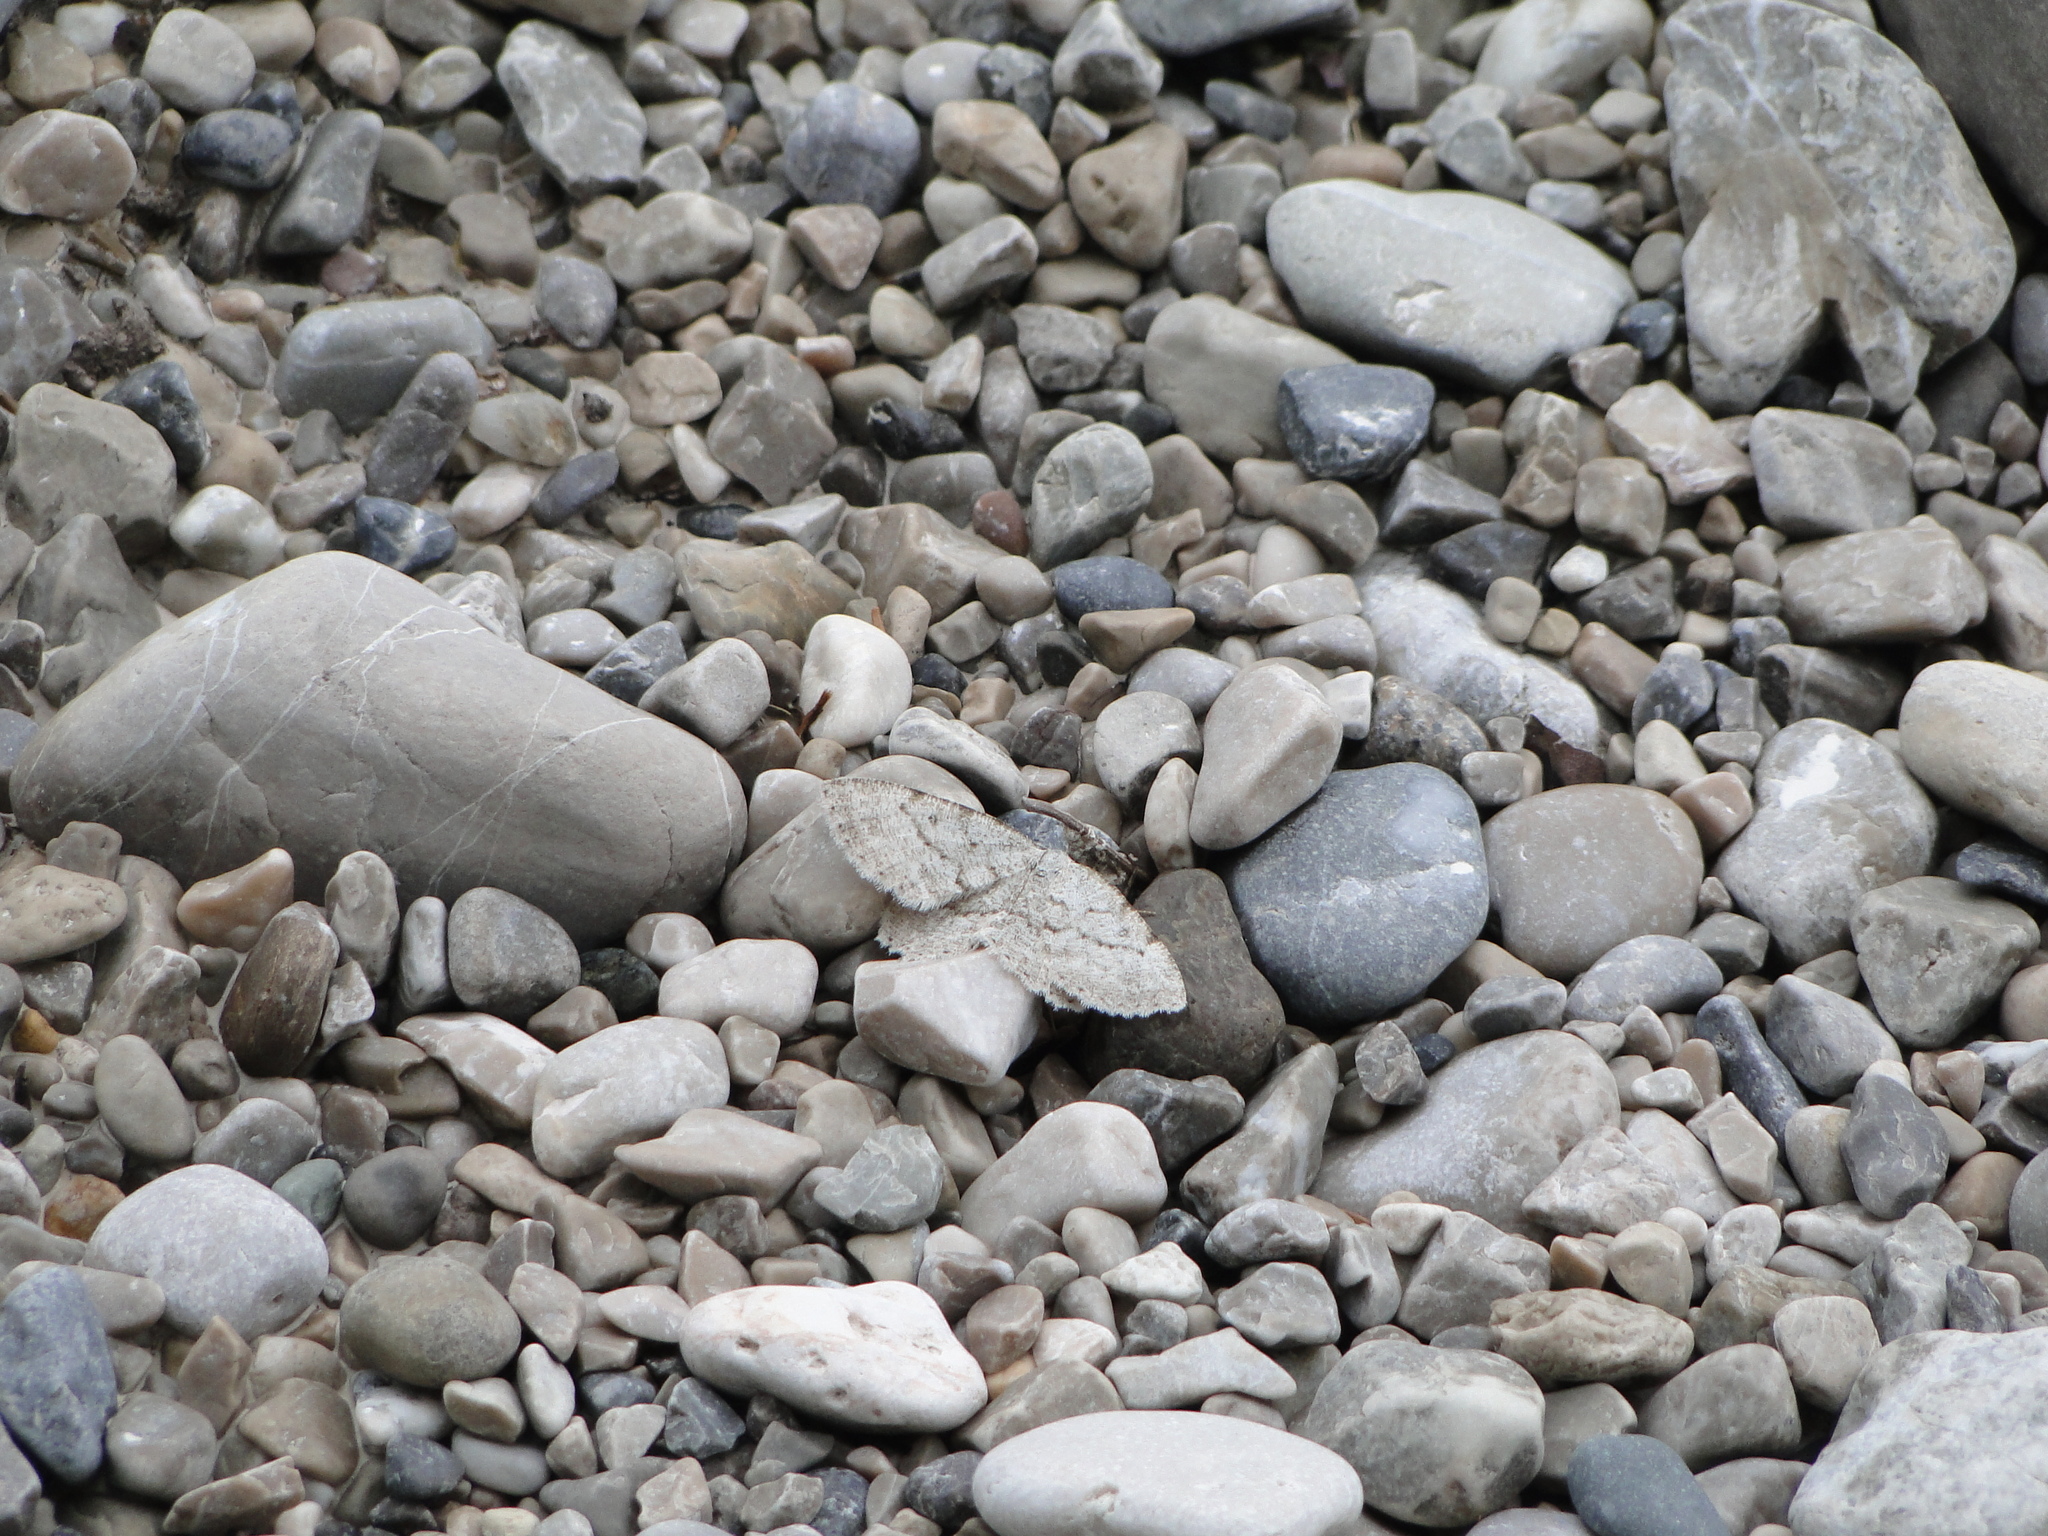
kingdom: Animalia
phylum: Arthropoda
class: Insecta
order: Lepidoptera
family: Geometridae
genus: Elophos
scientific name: Elophos Yezognophos dilucidaria
